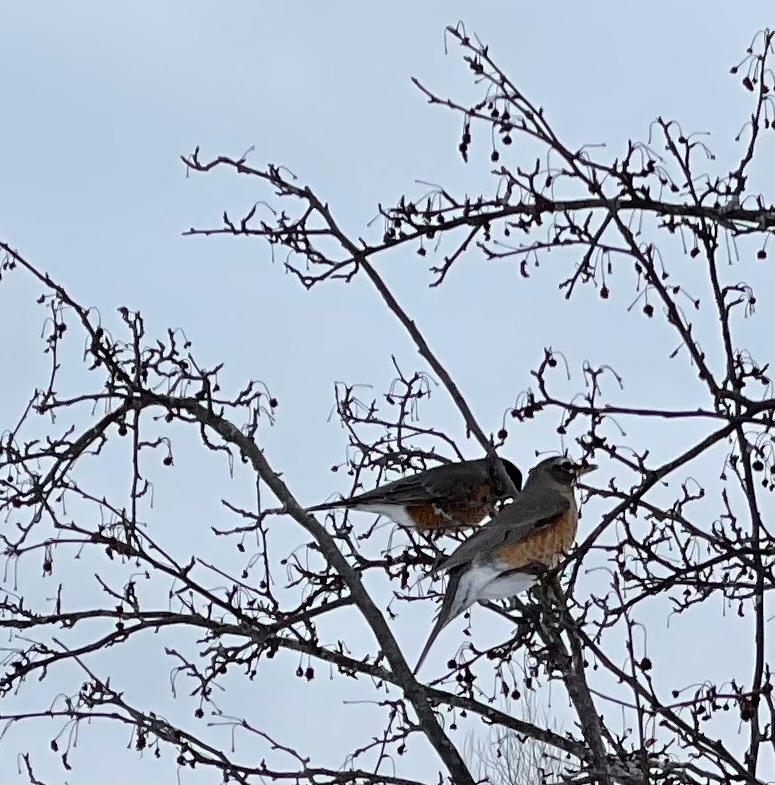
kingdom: Animalia
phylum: Chordata
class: Aves
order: Passeriformes
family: Turdidae
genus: Turdus
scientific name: Turdus migratorius
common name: American robin
